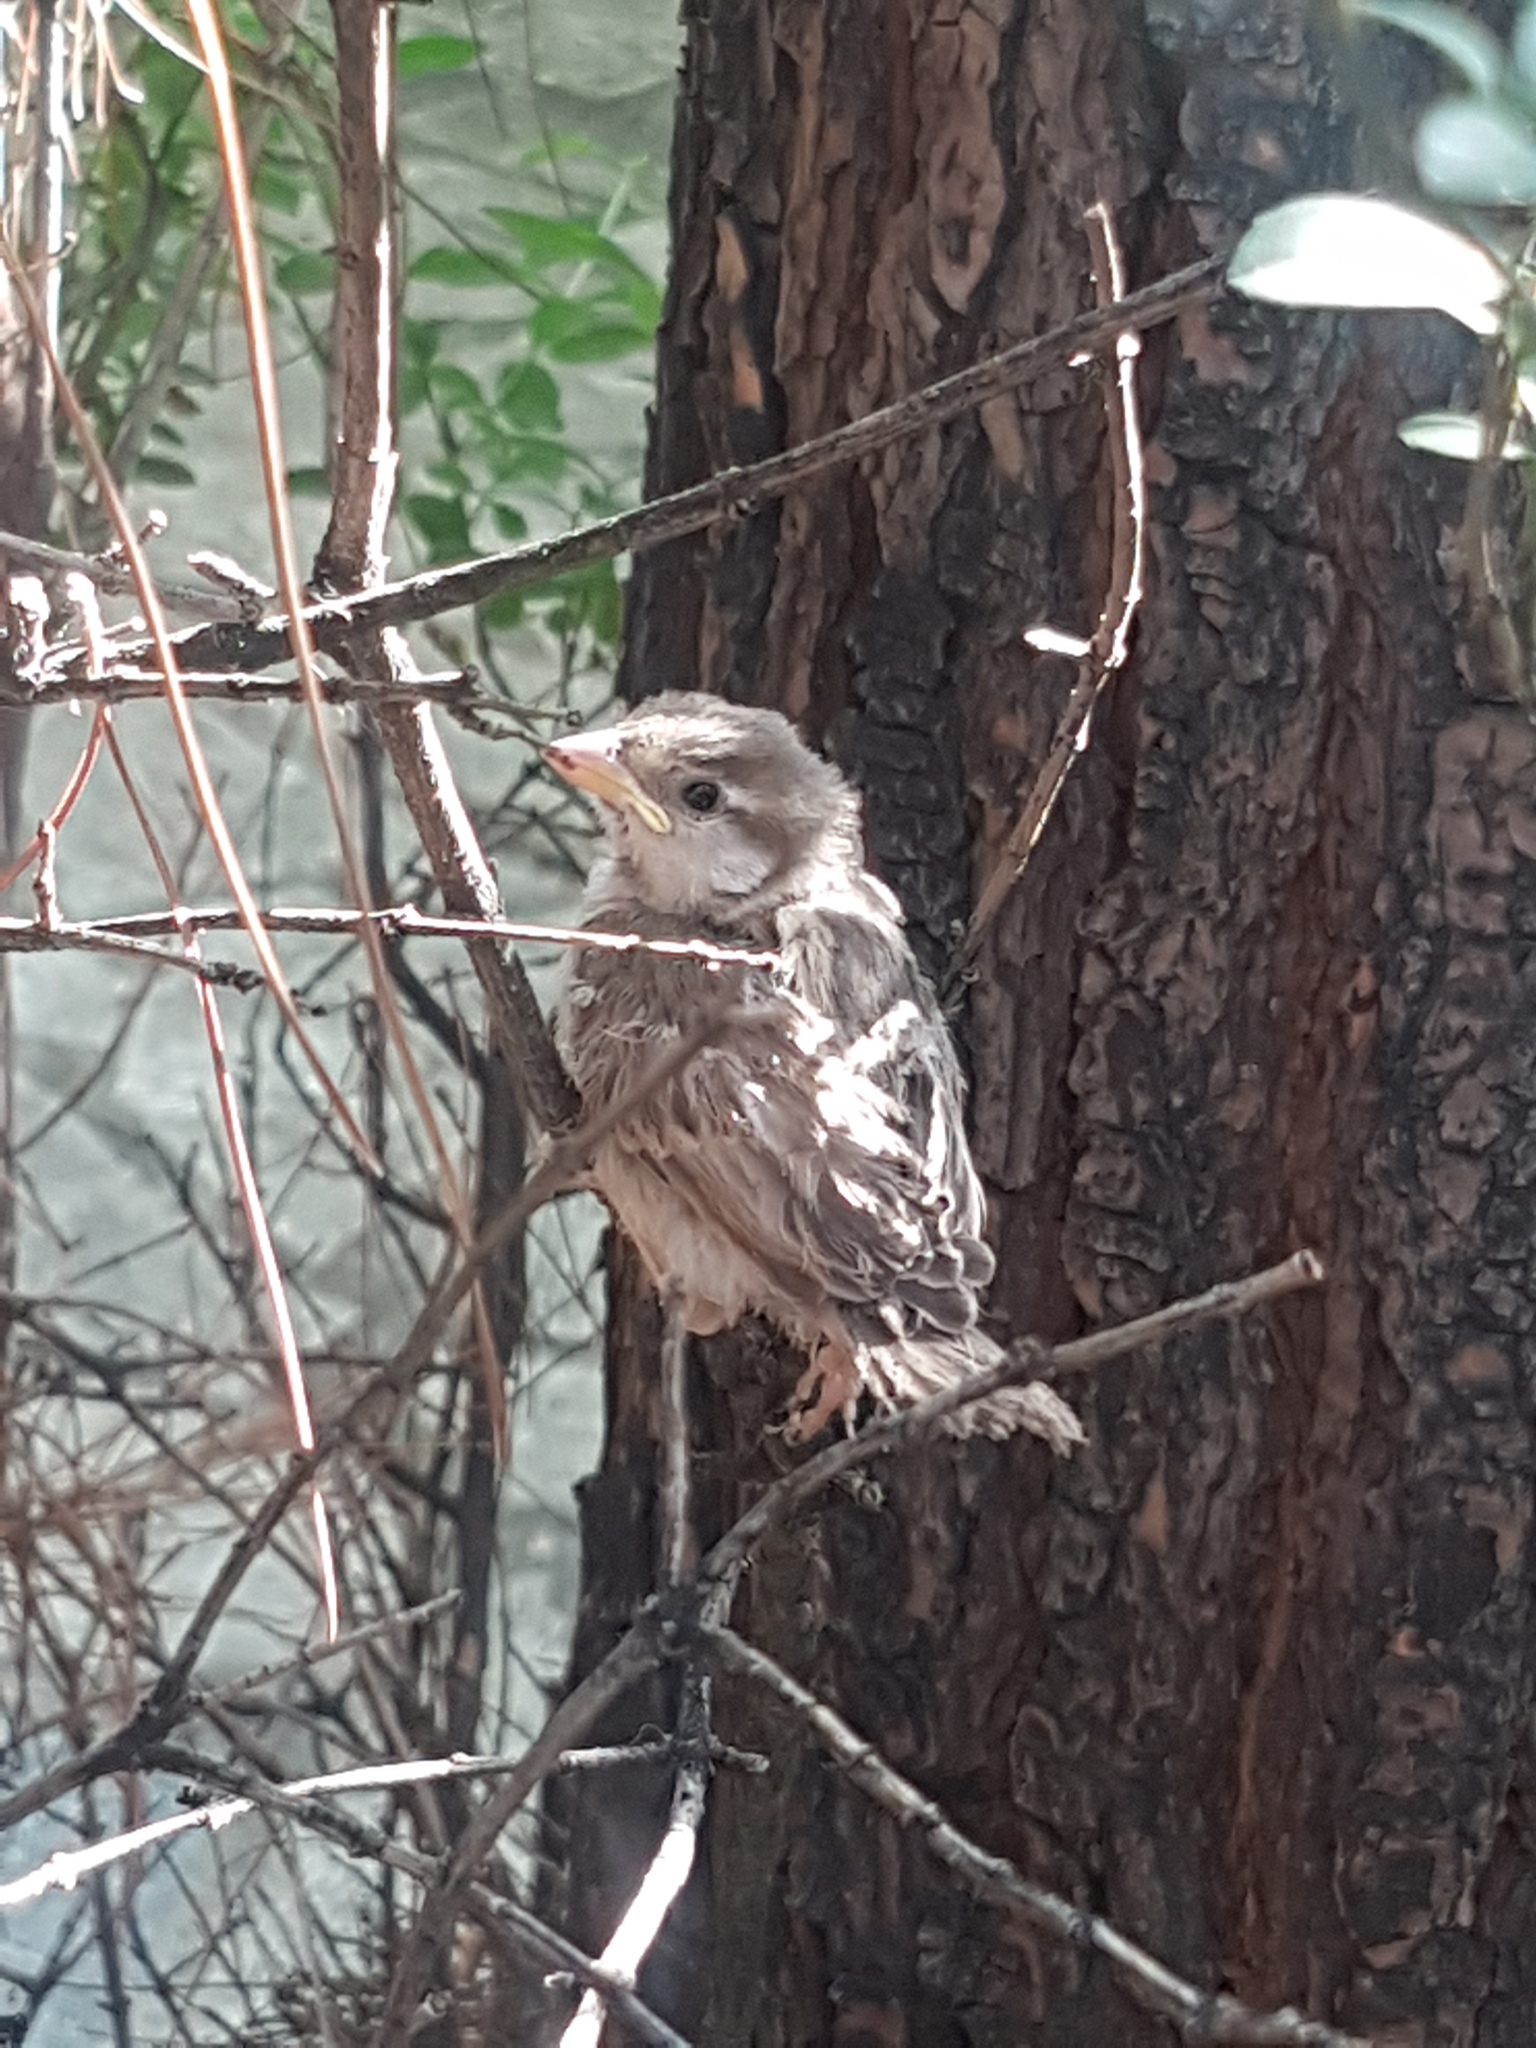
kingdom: Animalia
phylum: Chordata
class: Aves
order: Passeriformes
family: Passeridae
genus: Passer
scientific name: Passer domesticus
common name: House sparrow
